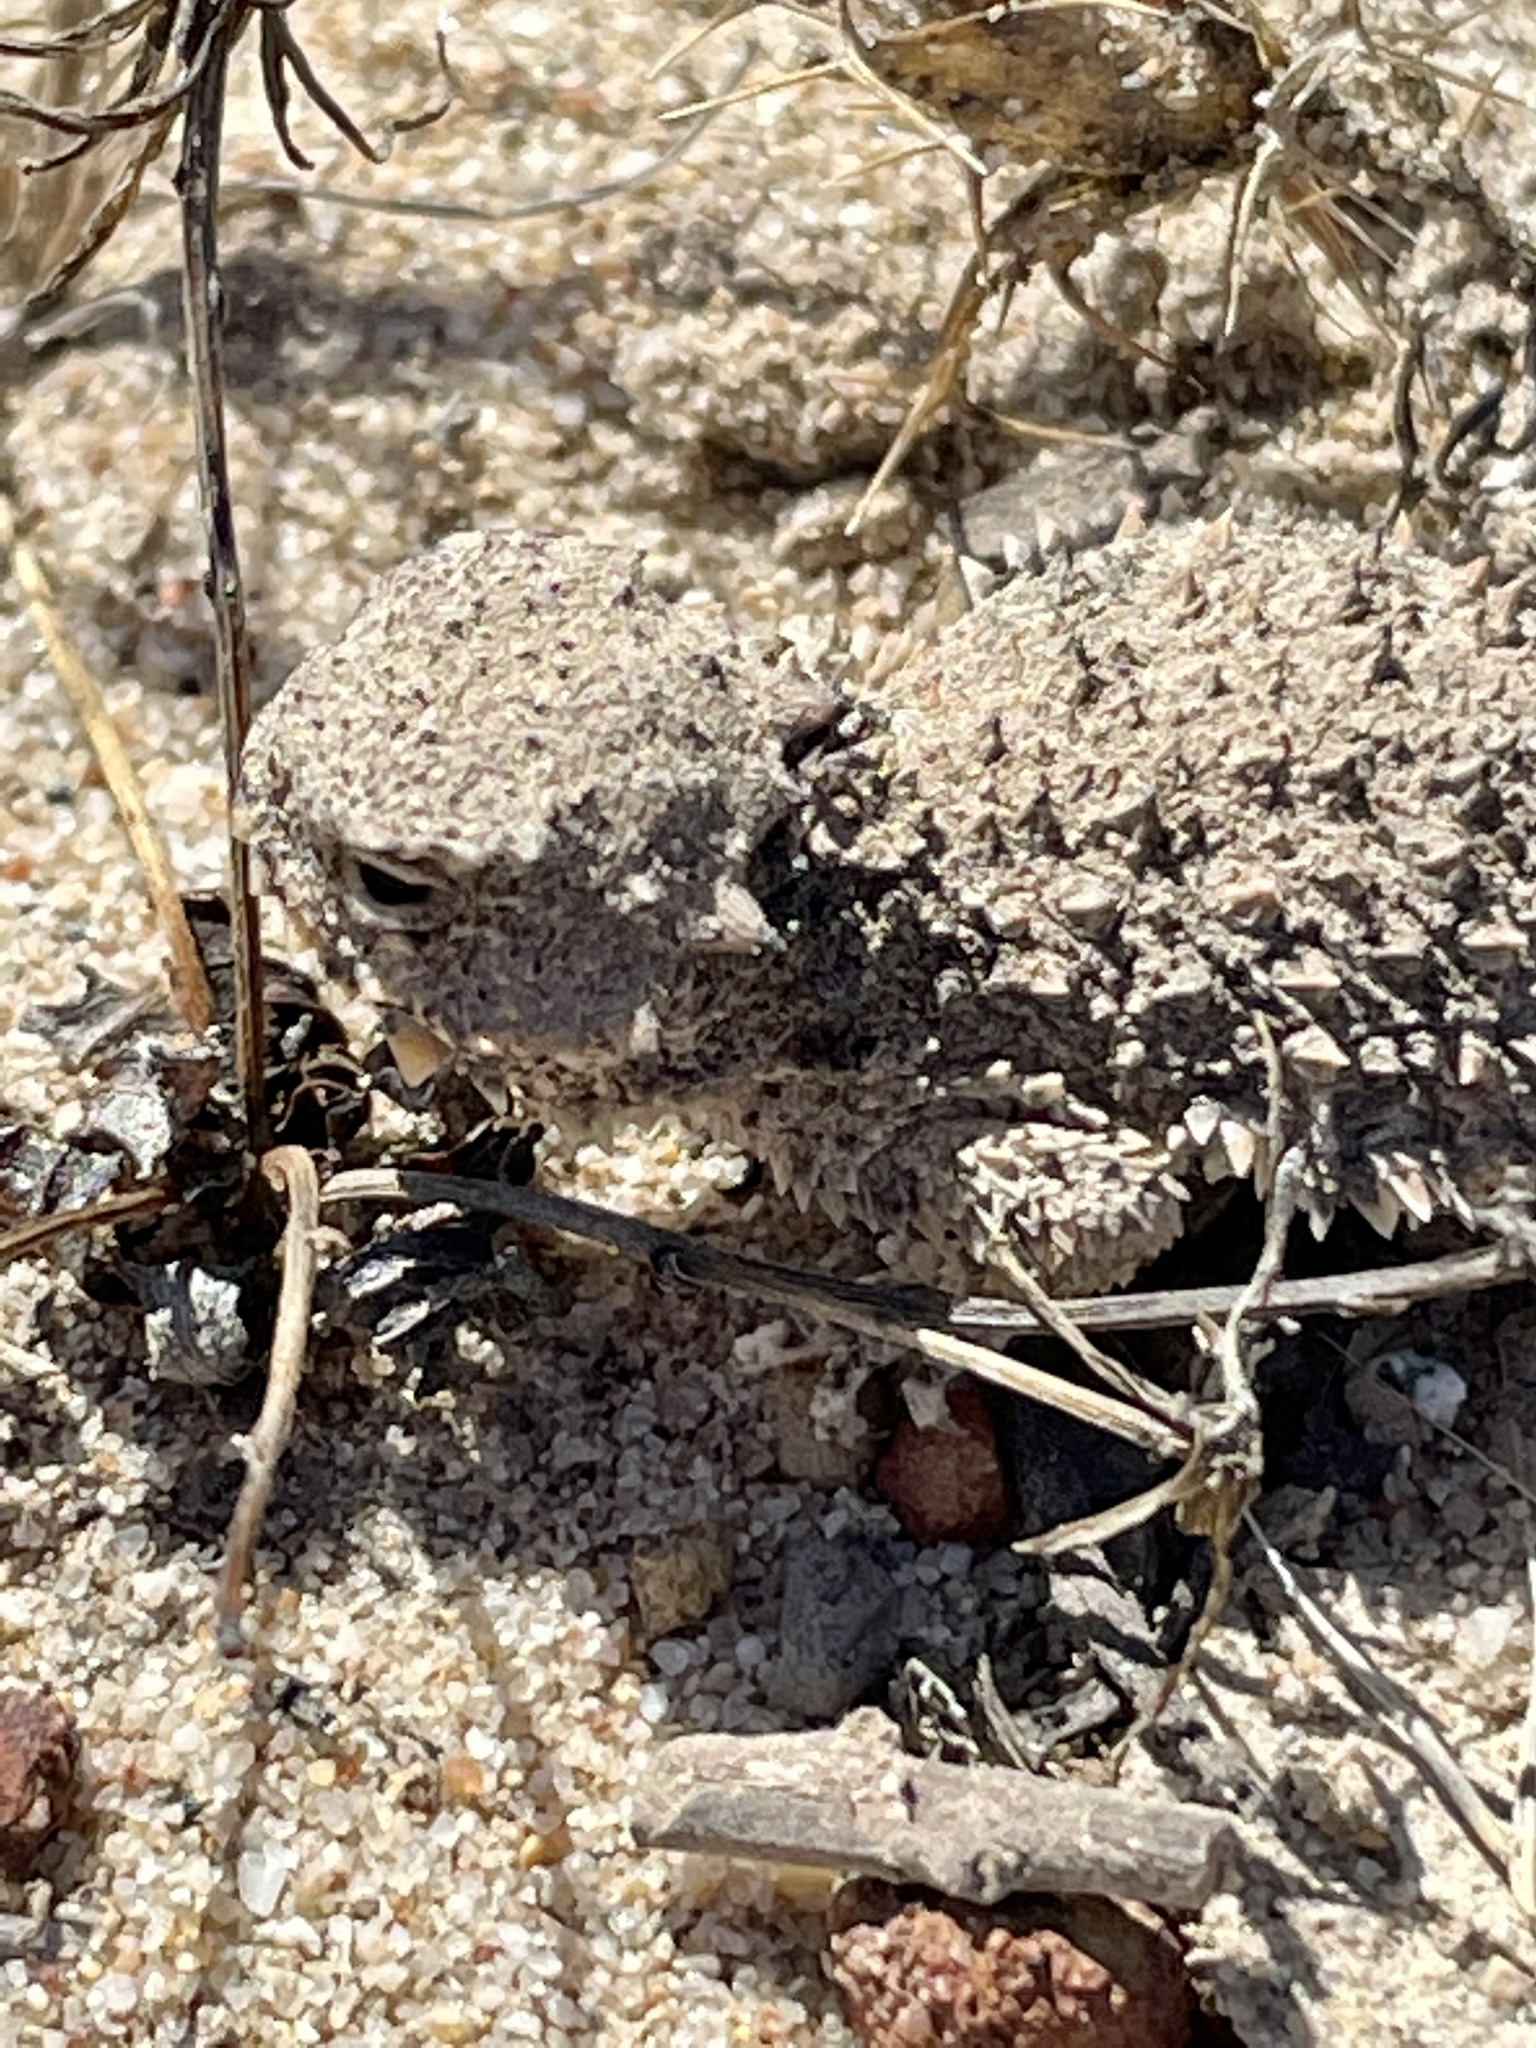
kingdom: Animalia
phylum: Chordata
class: Squamata
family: Phrynosomatidae
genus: Phrynosoma
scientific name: Phrynosoma blainvillii
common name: San diego horned lizard
